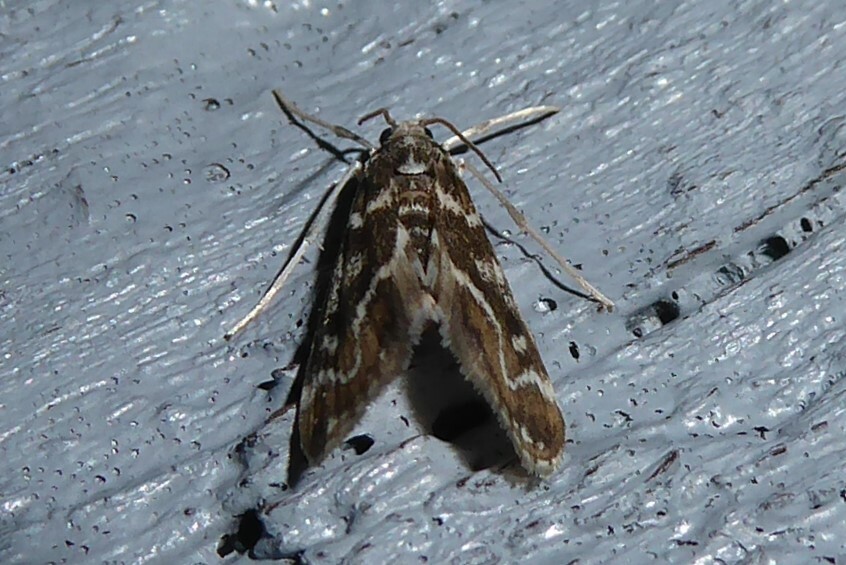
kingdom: Animalia
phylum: Arthropoda
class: Insecta
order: Lepidoptera
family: Crambidae
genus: Hygraula
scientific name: Hygraula nitens
